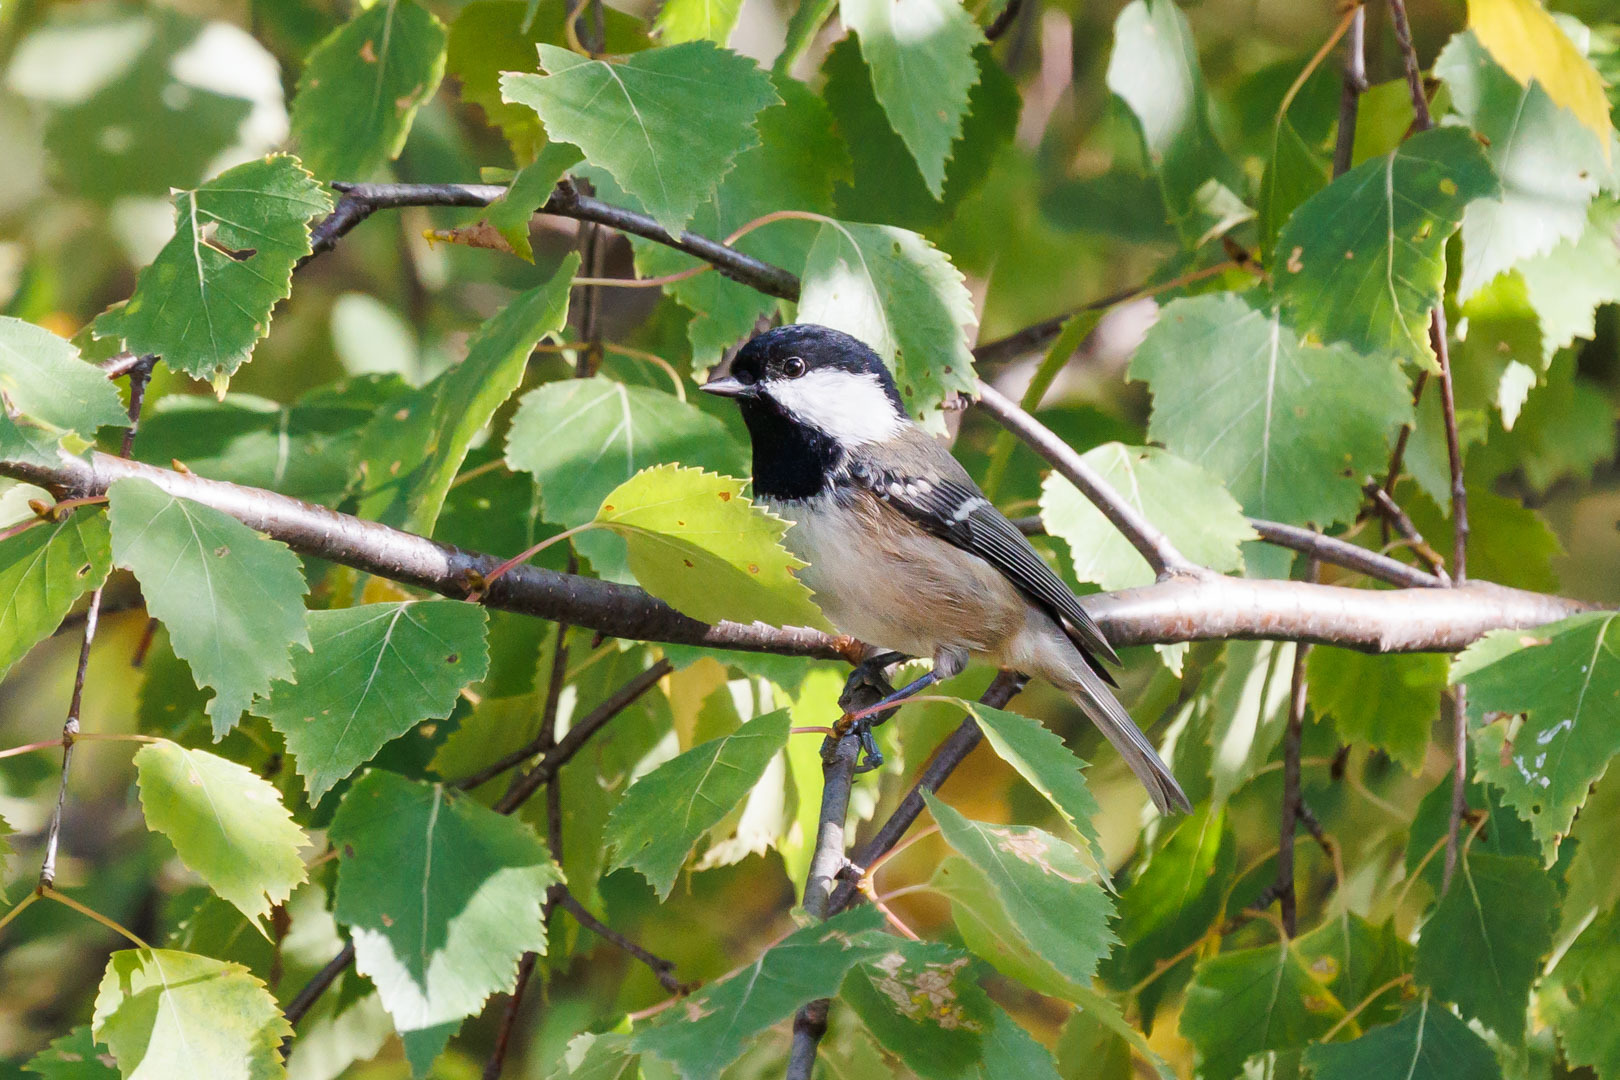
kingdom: Animalia
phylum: Chordata
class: Aves
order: Passeriformes
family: Paridae
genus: Periparus
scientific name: Periparus ater
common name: Coal tit
